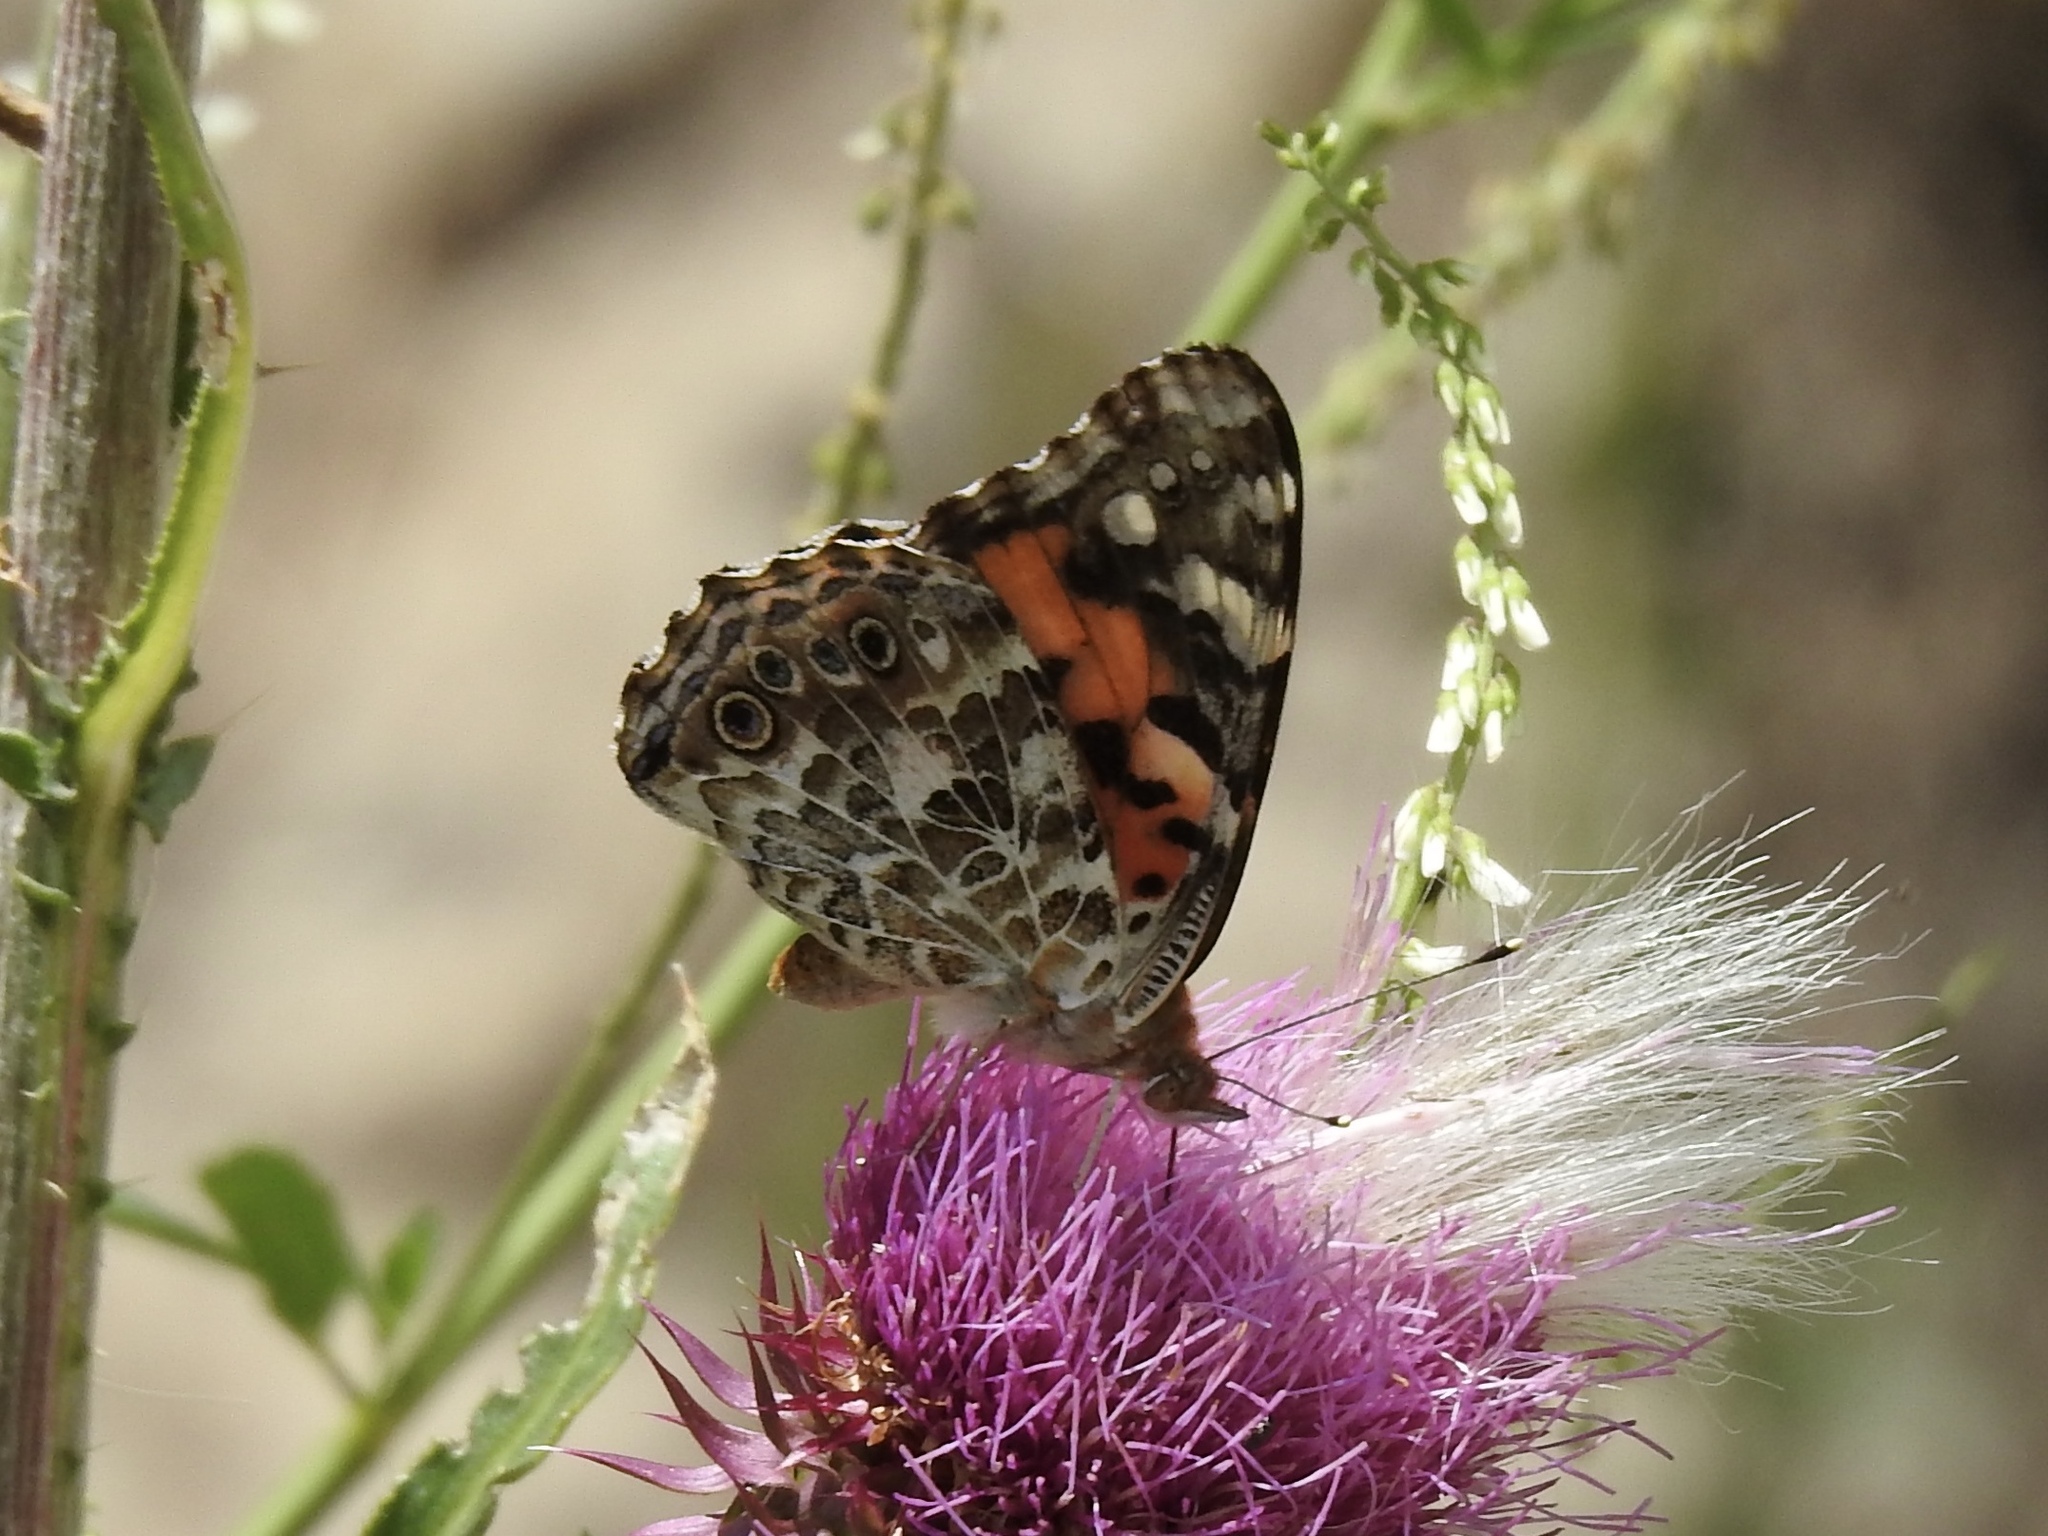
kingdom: Animalia
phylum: Arthropoda
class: Insecta
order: Lepidoptera
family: Nymphalidae
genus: Vanessa
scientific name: Vanessa cardui
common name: Painted lady
